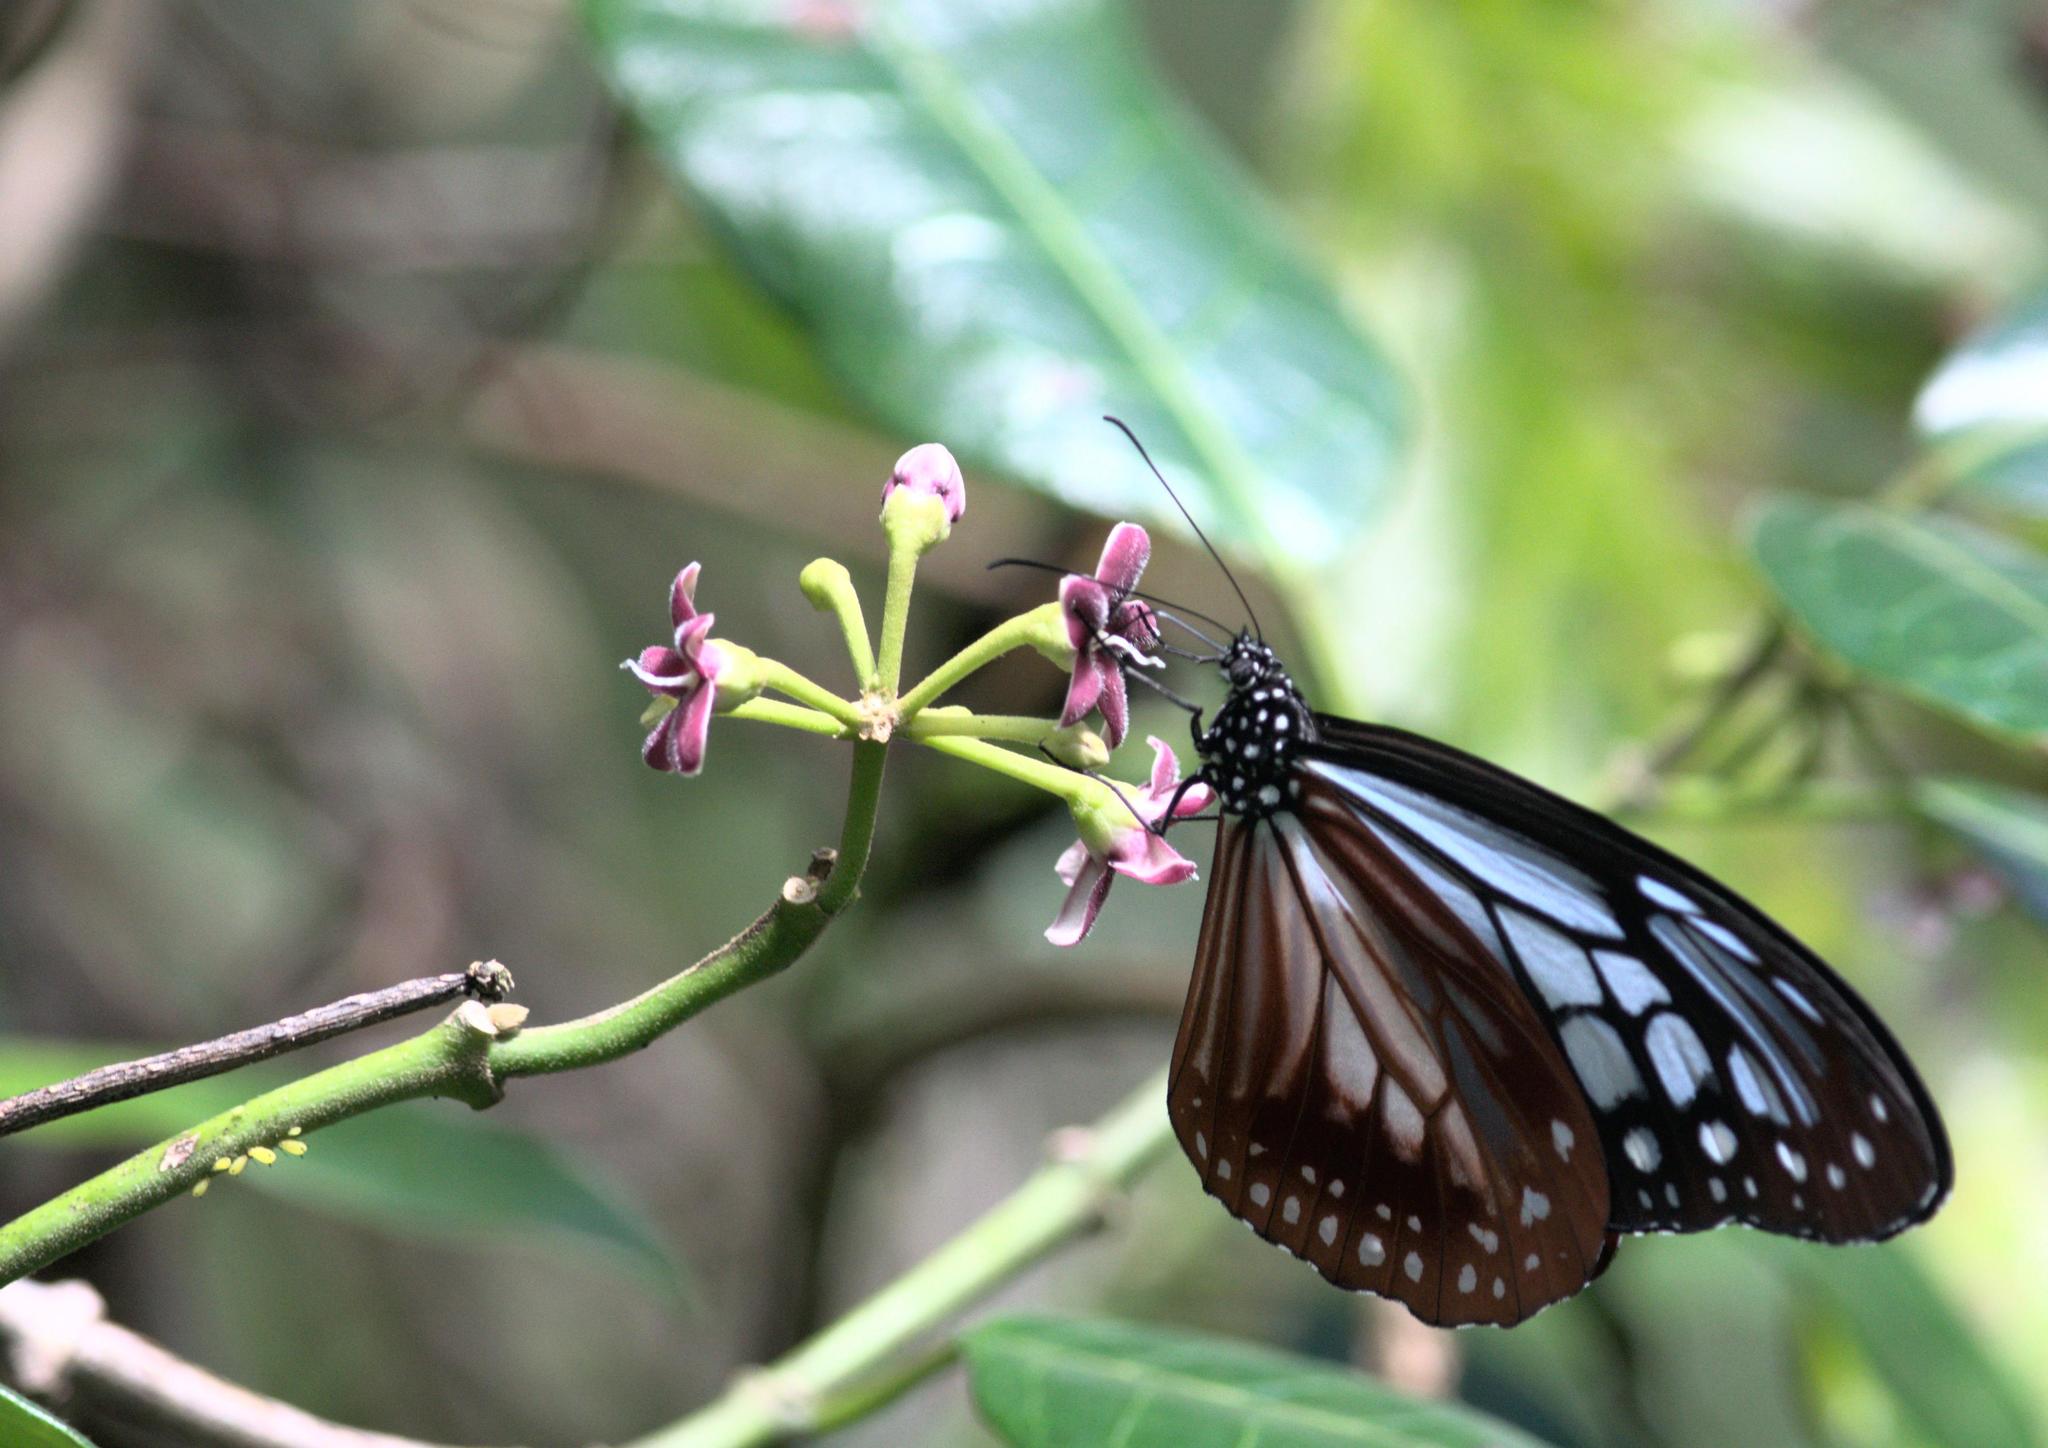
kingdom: Plantae
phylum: Tracheophyta
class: Magnoliopsida
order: Gentianales
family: Apocynaceae
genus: Sinomarsdenia
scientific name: Sinomarsdenia
